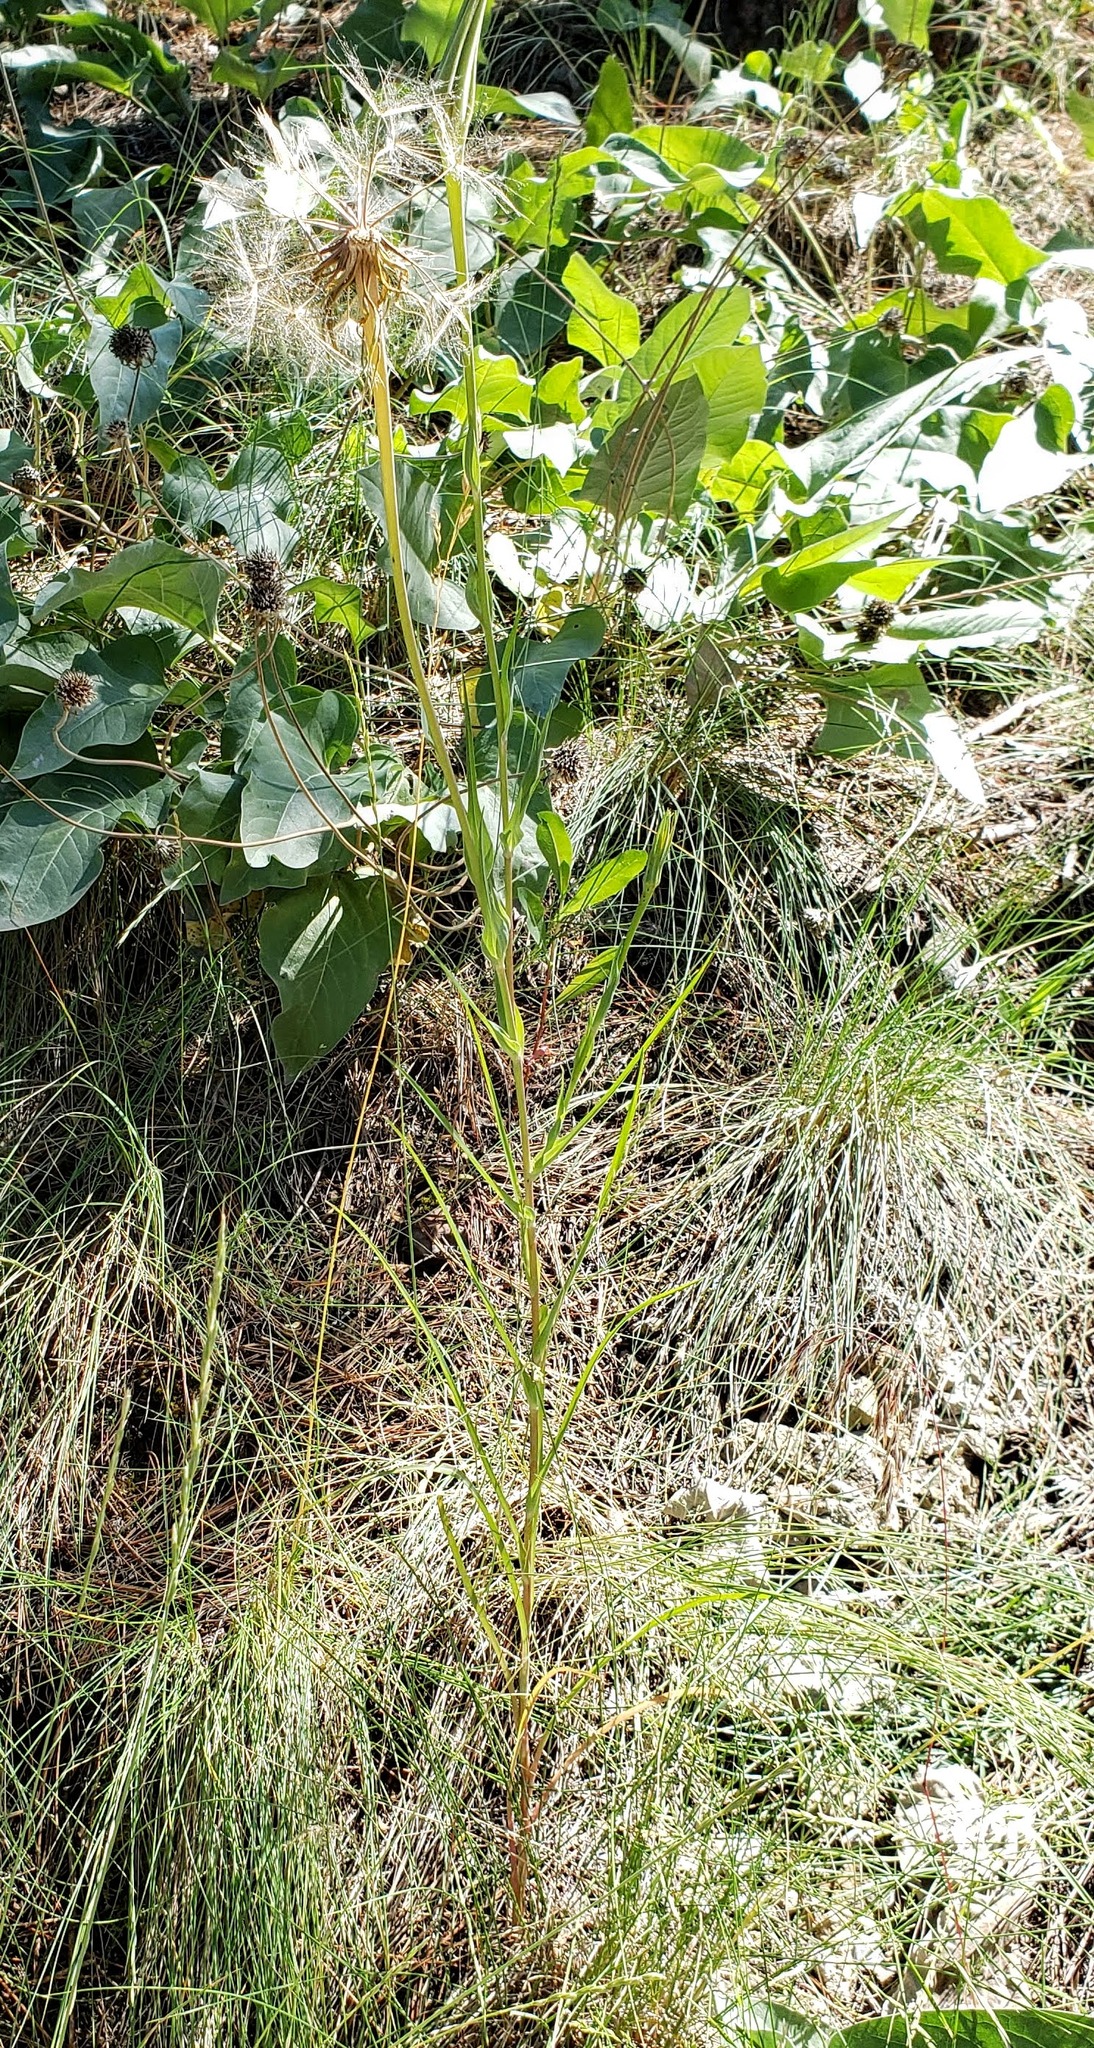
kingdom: Plantae
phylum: Tracheophyta
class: Magnoliopsida
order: Asterales
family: Asteraceae
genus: Tragopogon
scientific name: Tragopogon dubius
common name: Yellow salsify
